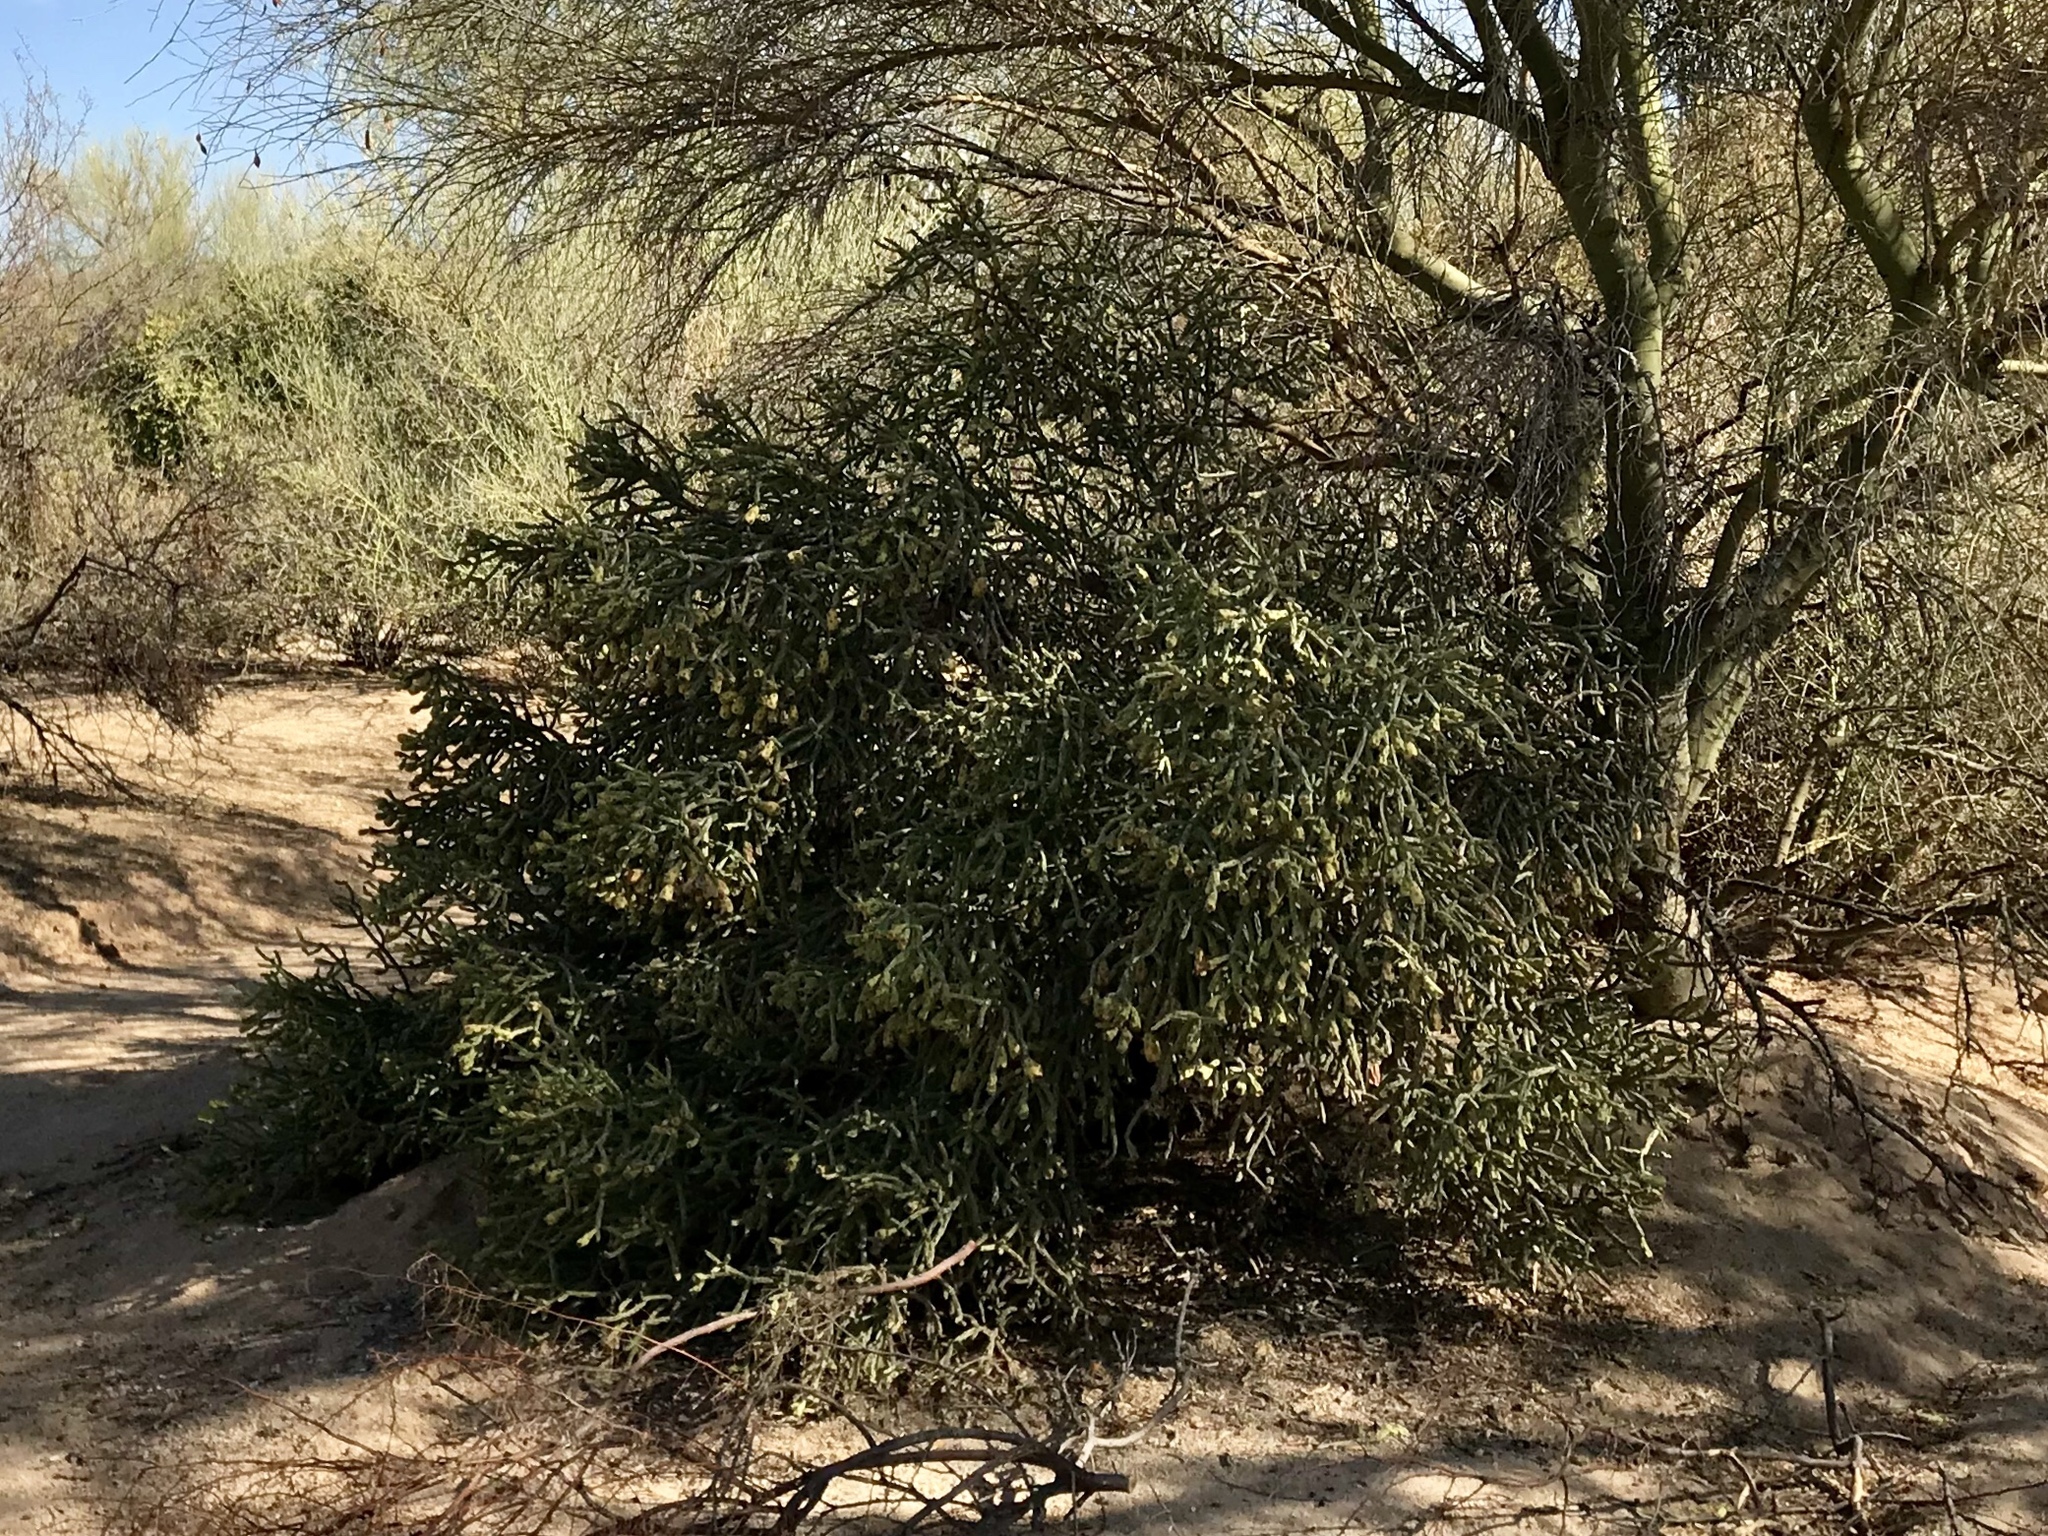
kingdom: Plantae
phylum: Tracheophyta
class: Magnoliopsida
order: Caryophyllales
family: Cactaceae
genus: Cylindropuntia
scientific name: Cylindropuntia arbuscula
